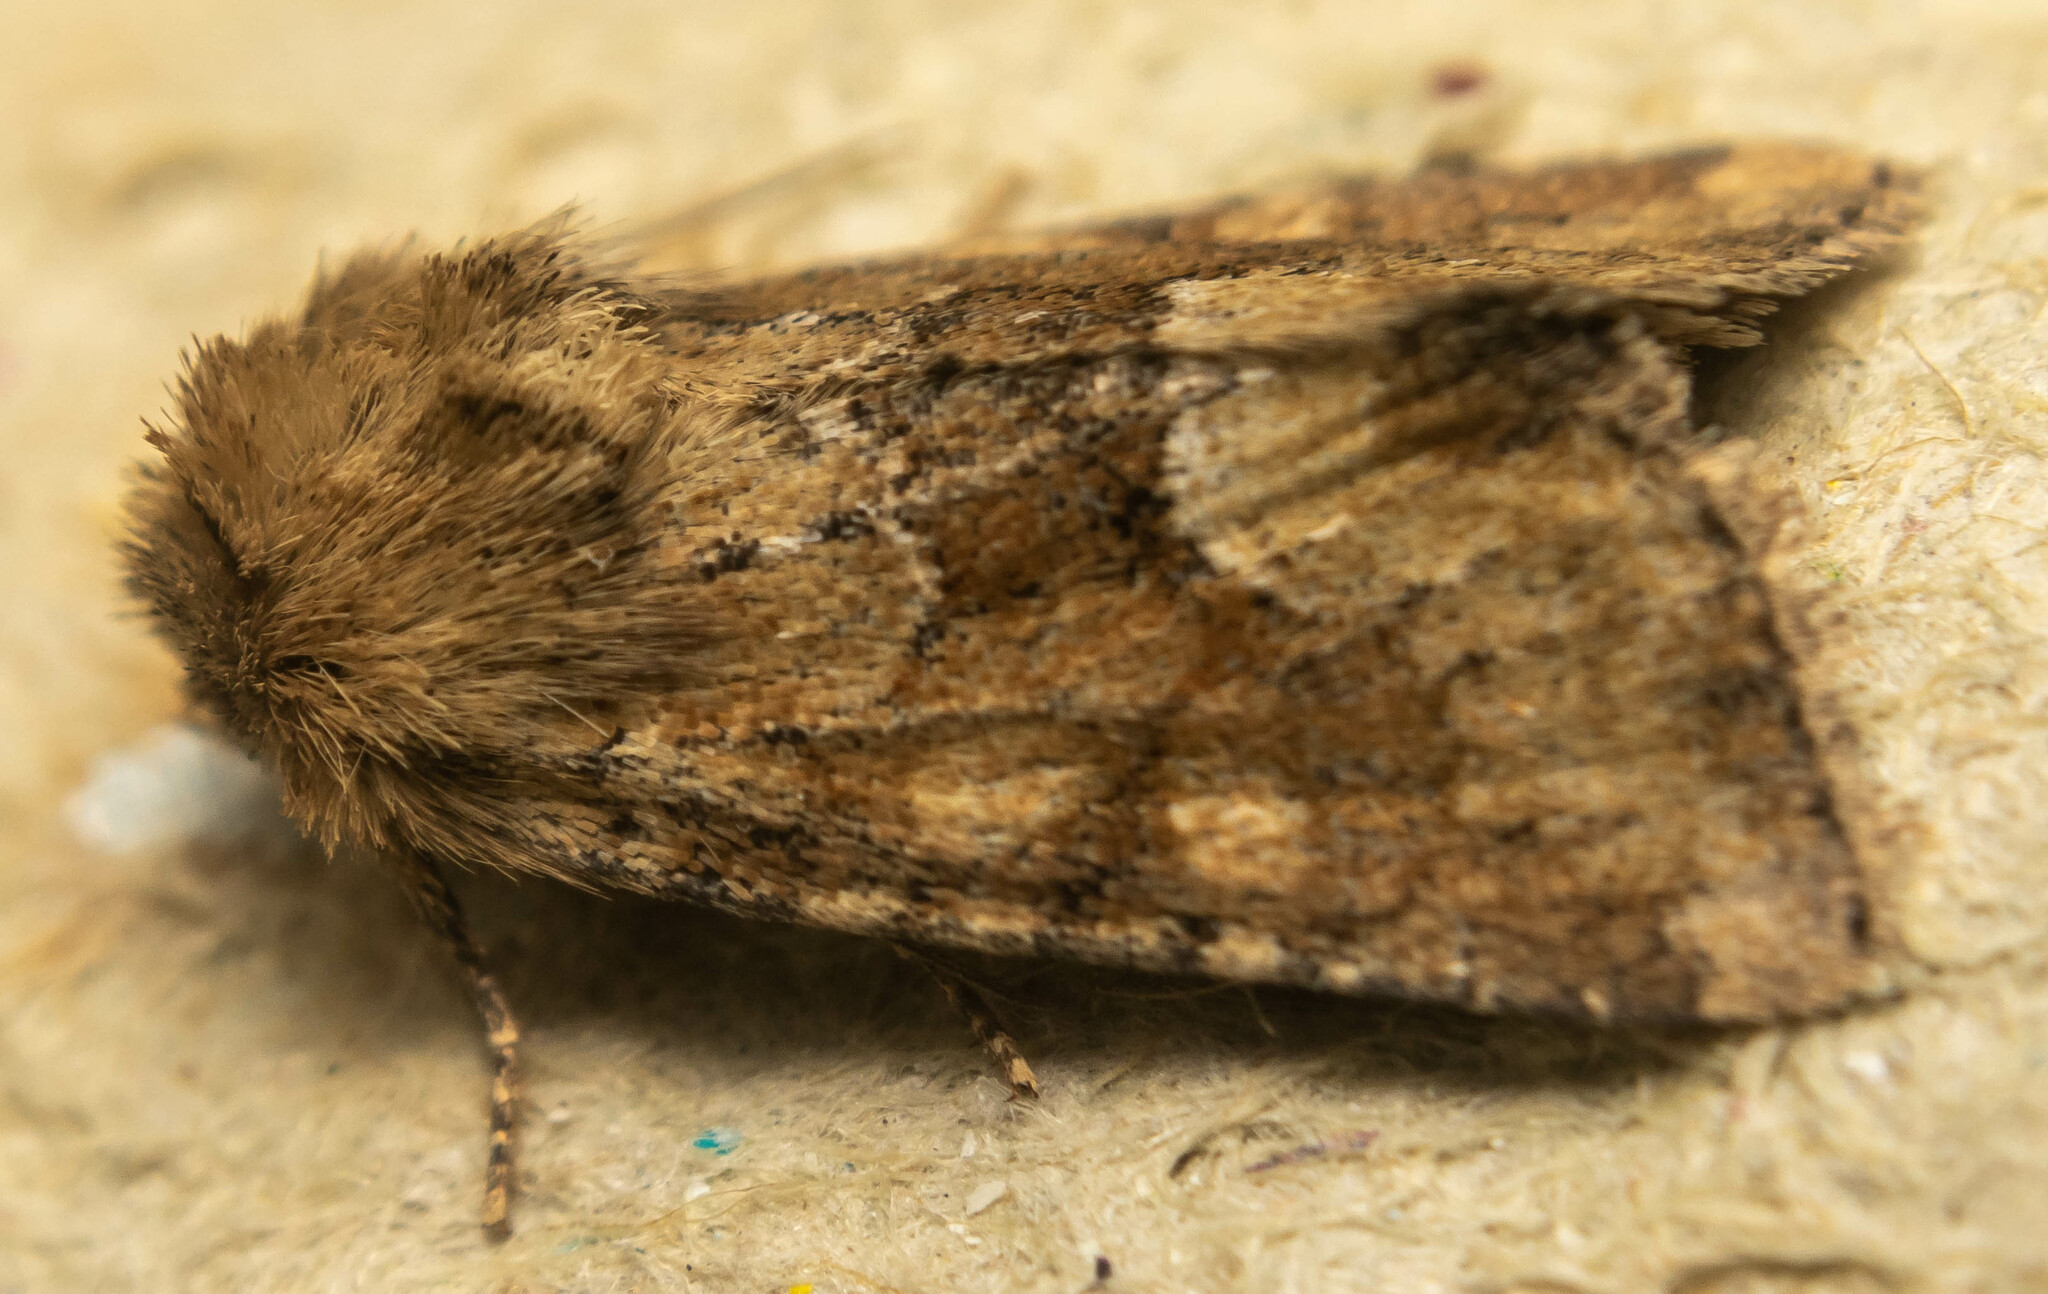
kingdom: Animalia
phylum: Arthropoda
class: Insecta
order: Lepidoptera
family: Noctuidae
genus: Oligia
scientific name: Oligia fasciuncula
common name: Middle-barred minor
